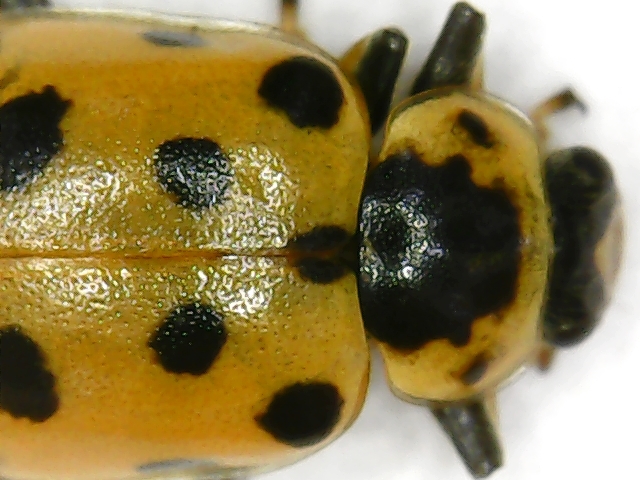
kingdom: Animalia
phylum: Arthropoda
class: Insecta
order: Coleoptera
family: Coccinellidae
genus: Hippodamia
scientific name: Hippodamia tredecimpunctata
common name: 13-spot ladybird
